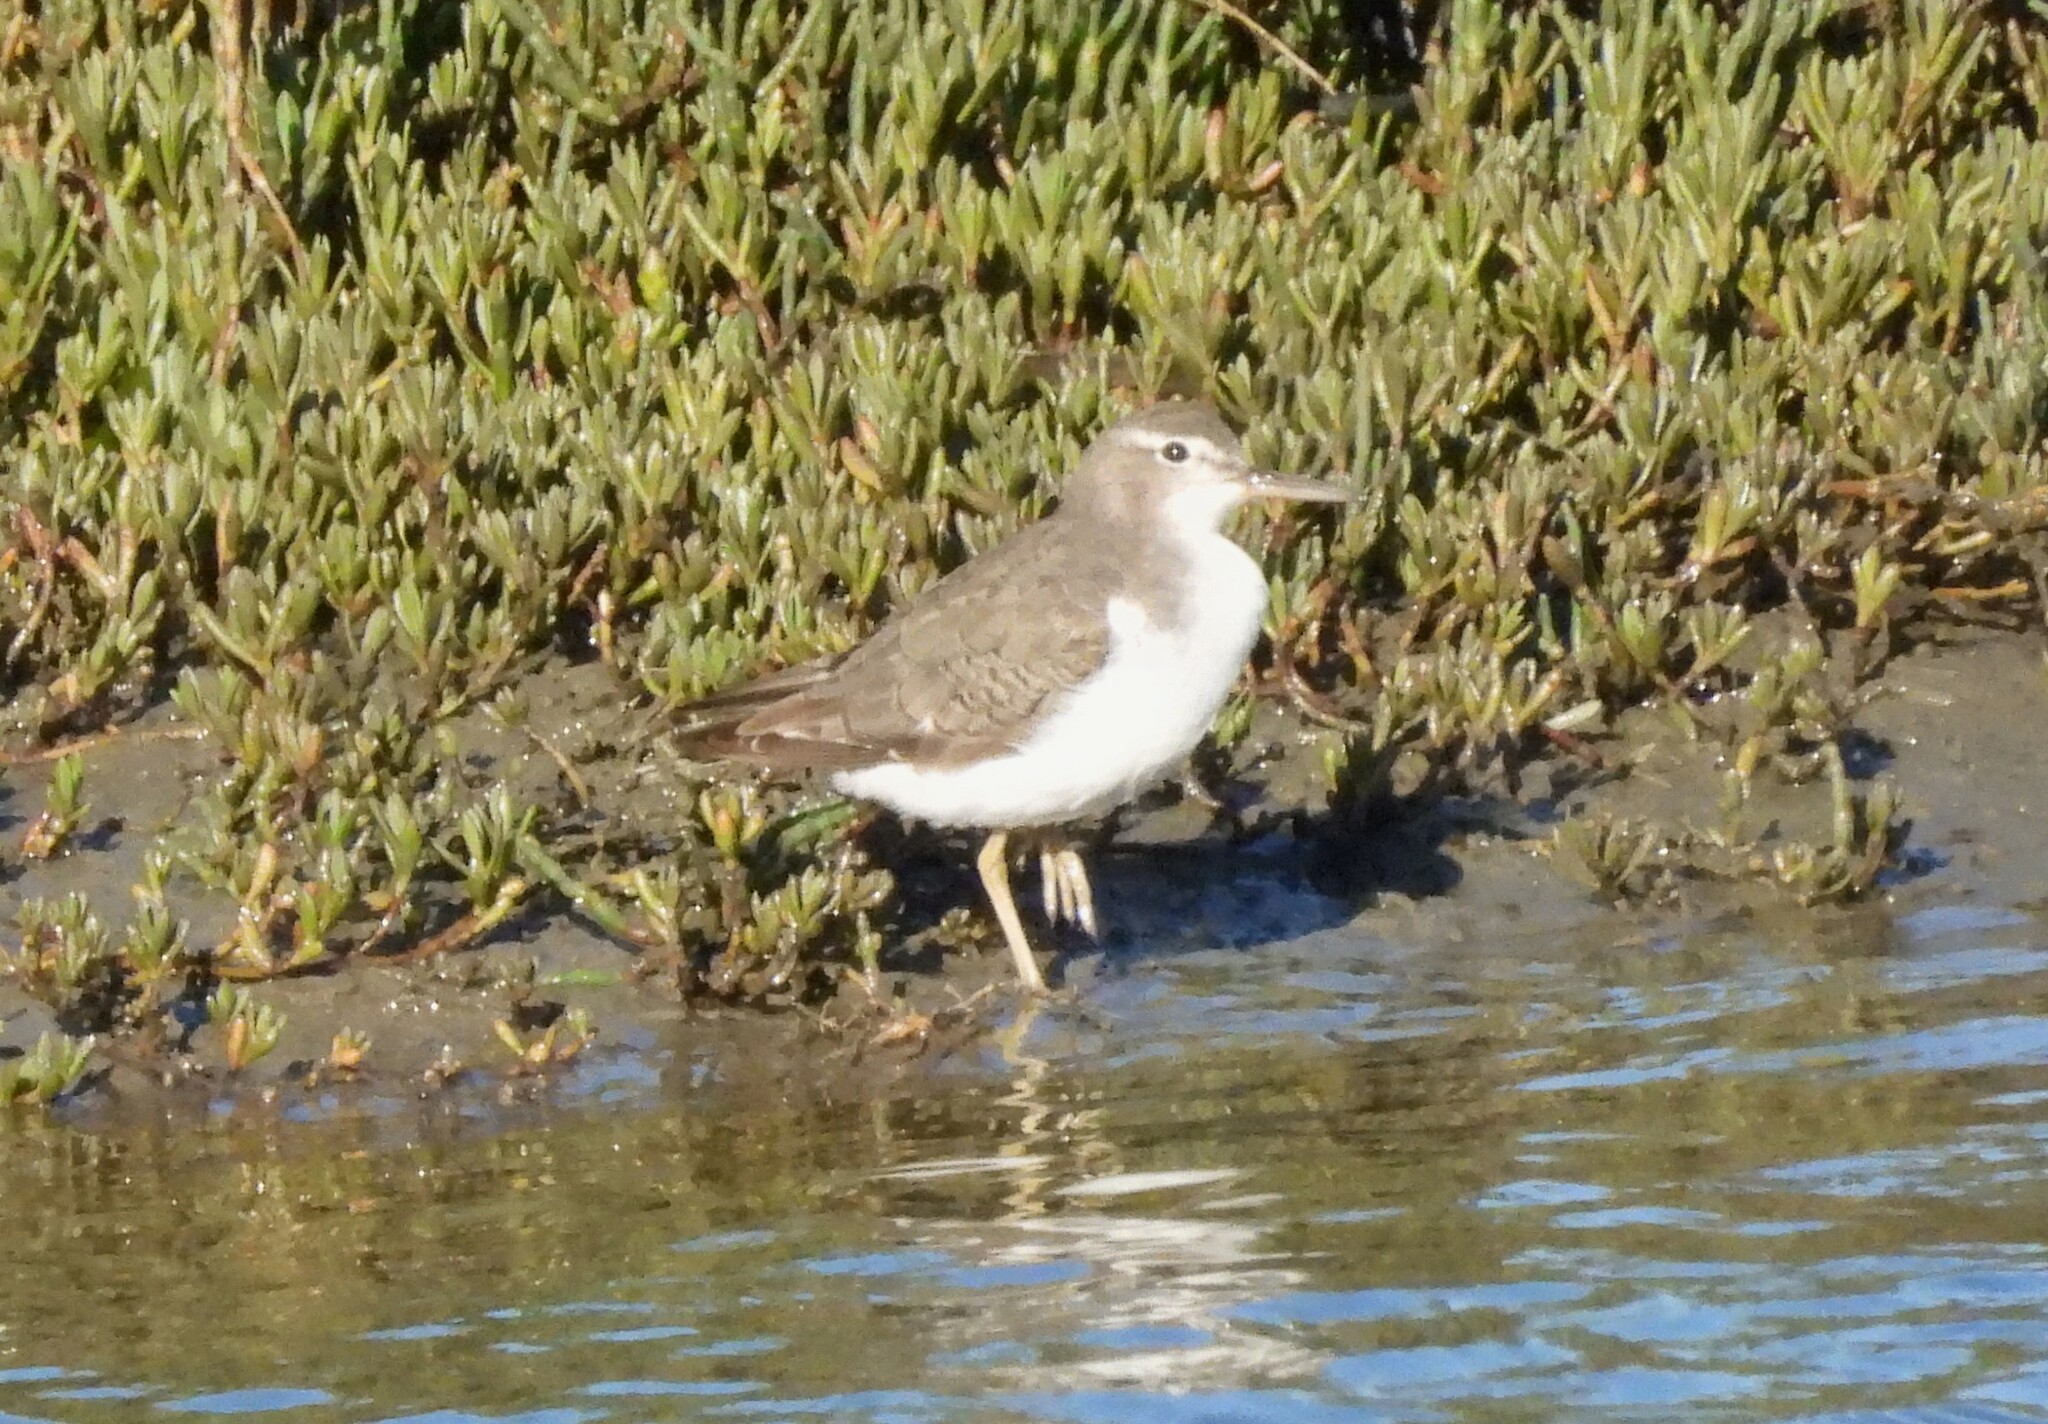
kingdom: Animalia
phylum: Chordata
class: Aves
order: Charadriiformes
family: Scolopacidae
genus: Actitis
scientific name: Actitis macularius
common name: Spotted sandpiper
